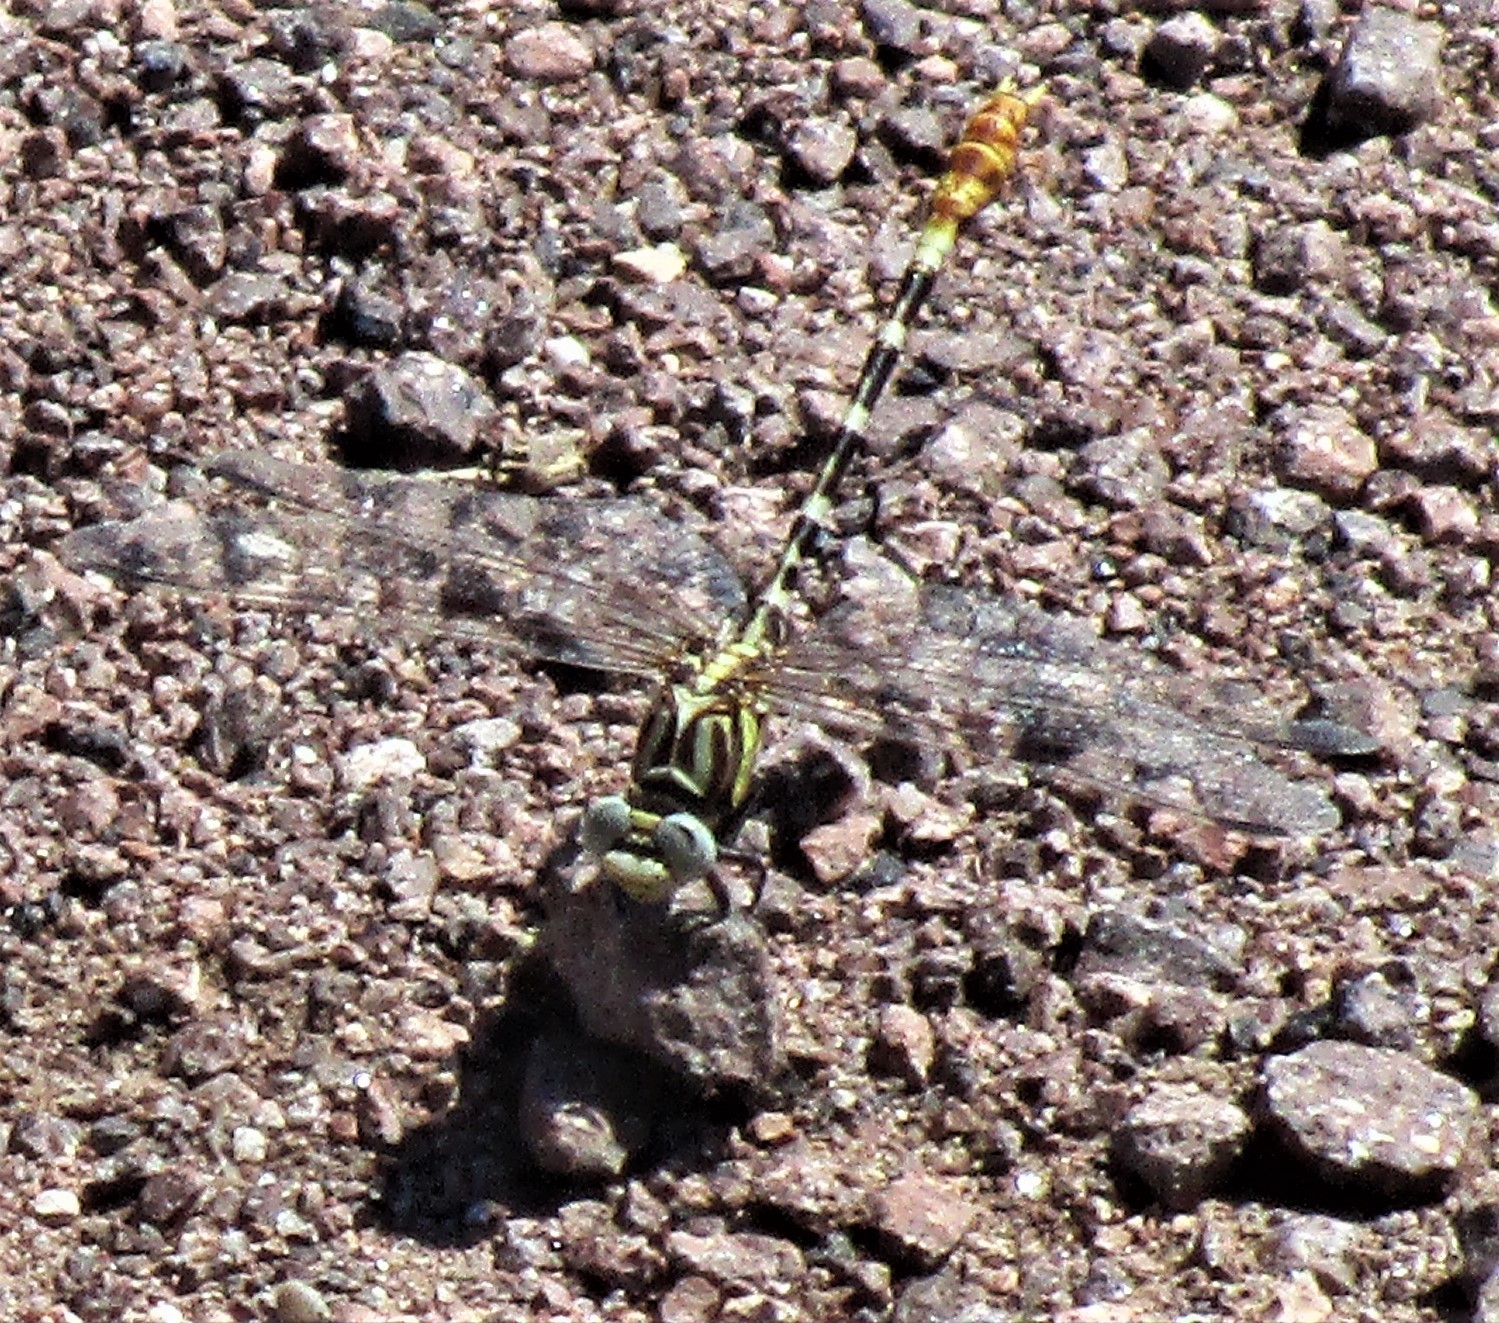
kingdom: Animalia
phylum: Arthropoda
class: Insecta
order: Odonata
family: Gomphidae
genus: Erpetogomphus
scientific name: Erpetogomphus compositus
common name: White-belted ringtail
